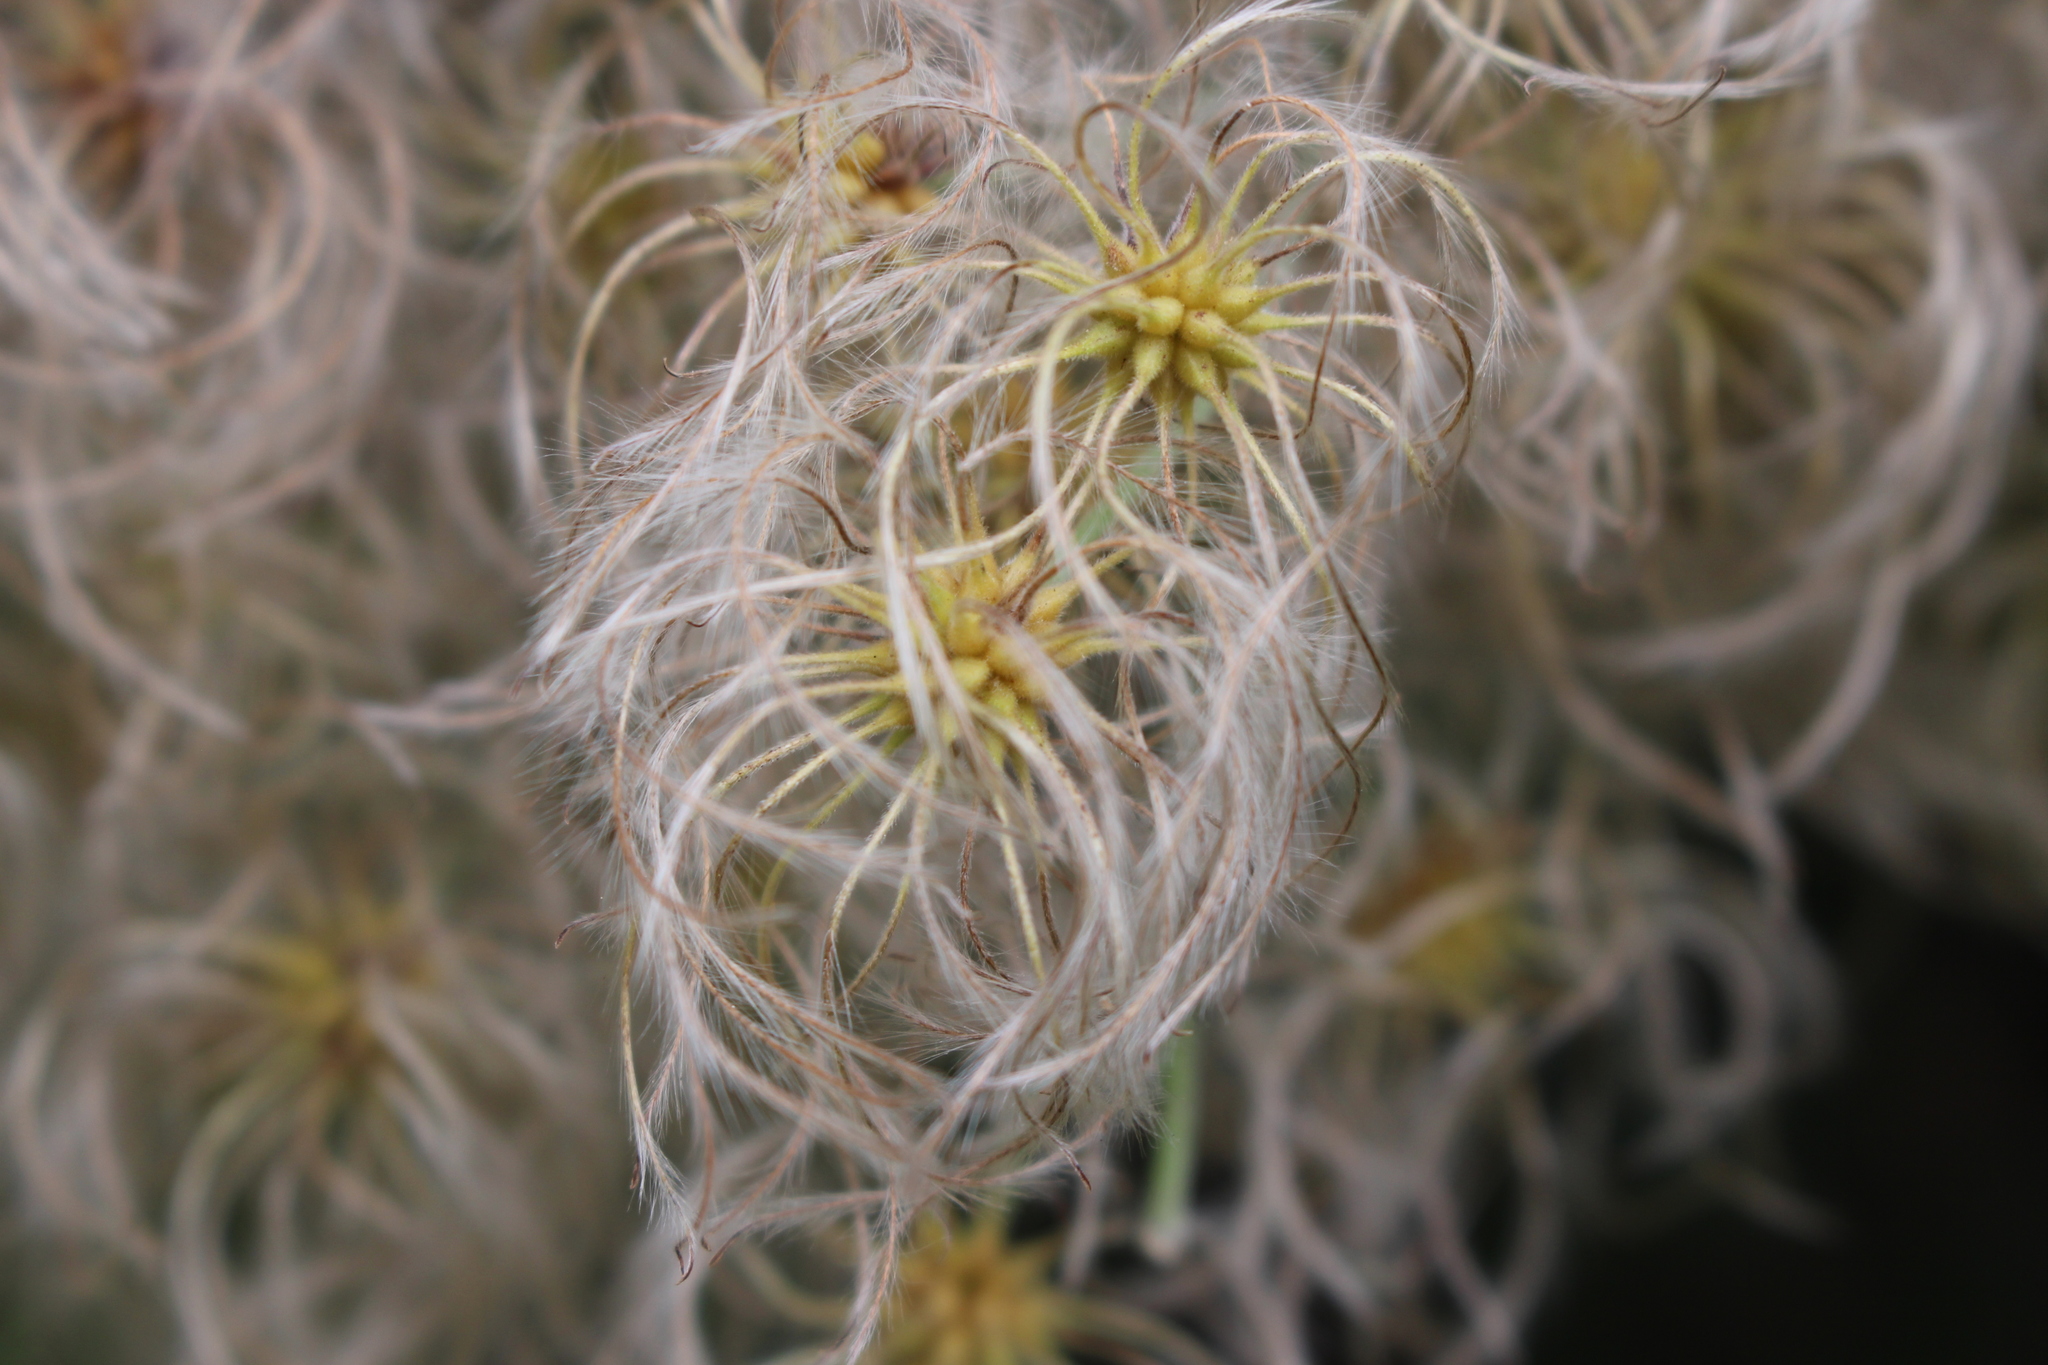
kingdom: Plantae
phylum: Tracheophyta
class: Magnoliopsida
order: Ranunculales
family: Ranunculaceae
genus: Clematis
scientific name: Clematis paniculata
